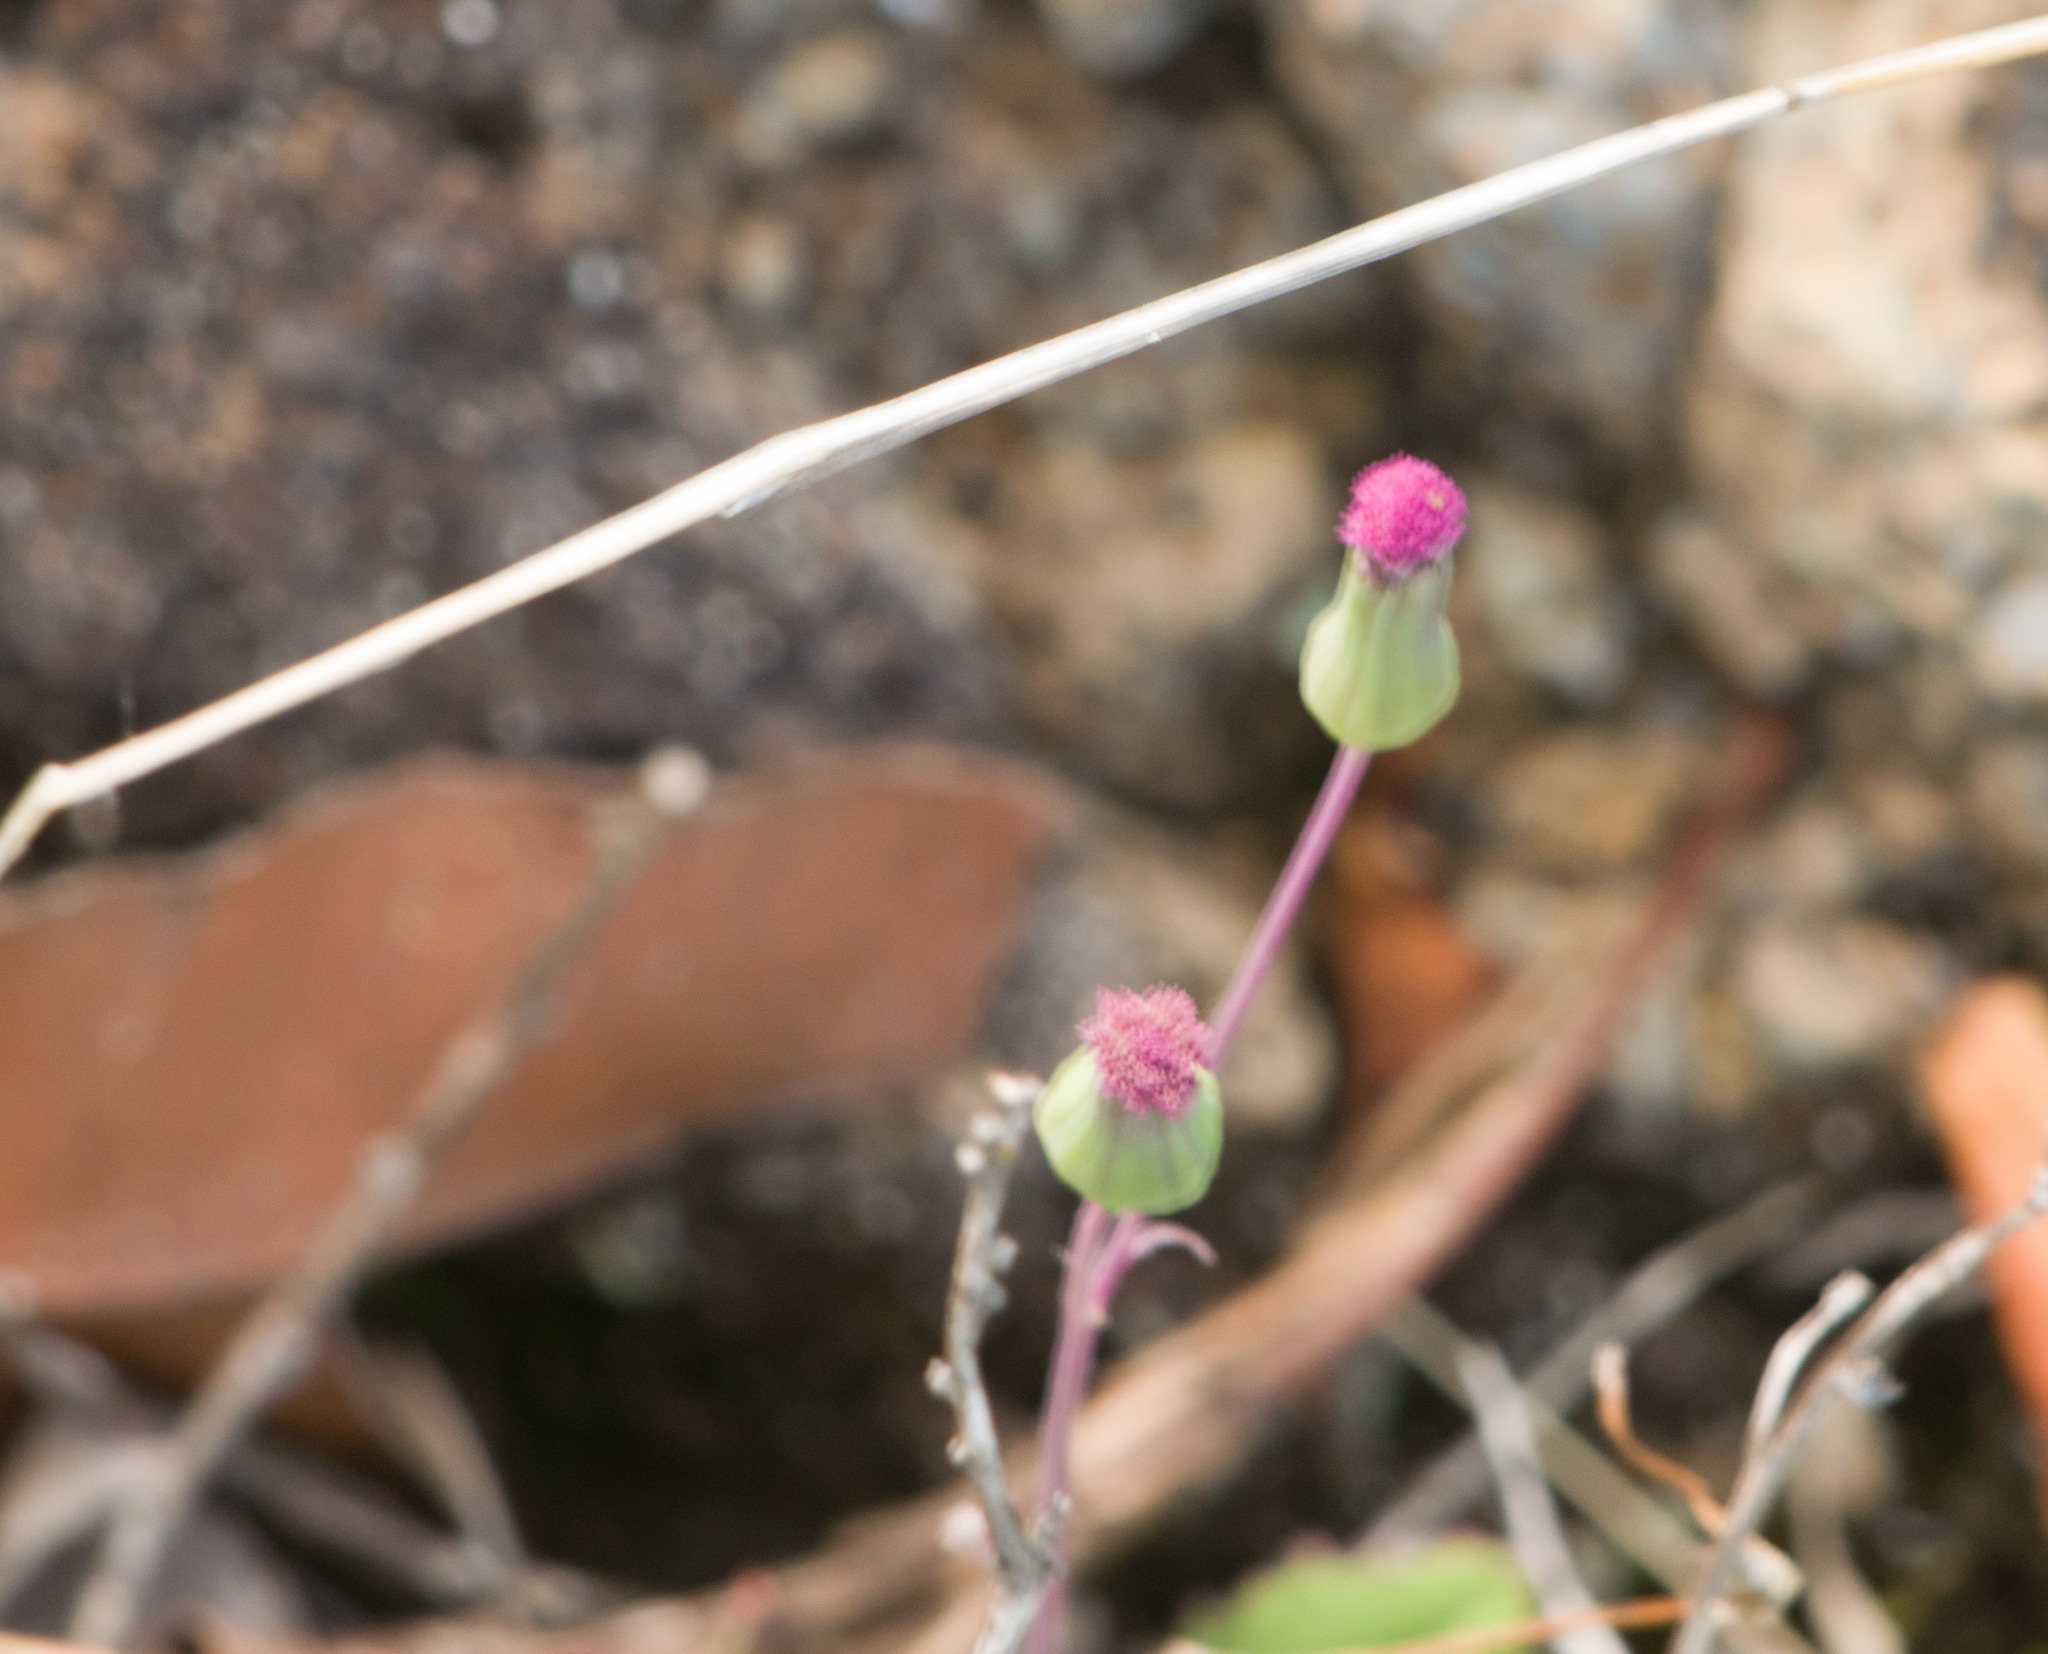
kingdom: Plantae
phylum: Tracheophyta
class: Magnoliopsida
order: Asterales
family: Asteraceae
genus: Emilia
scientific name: Emilia sonchifolia
